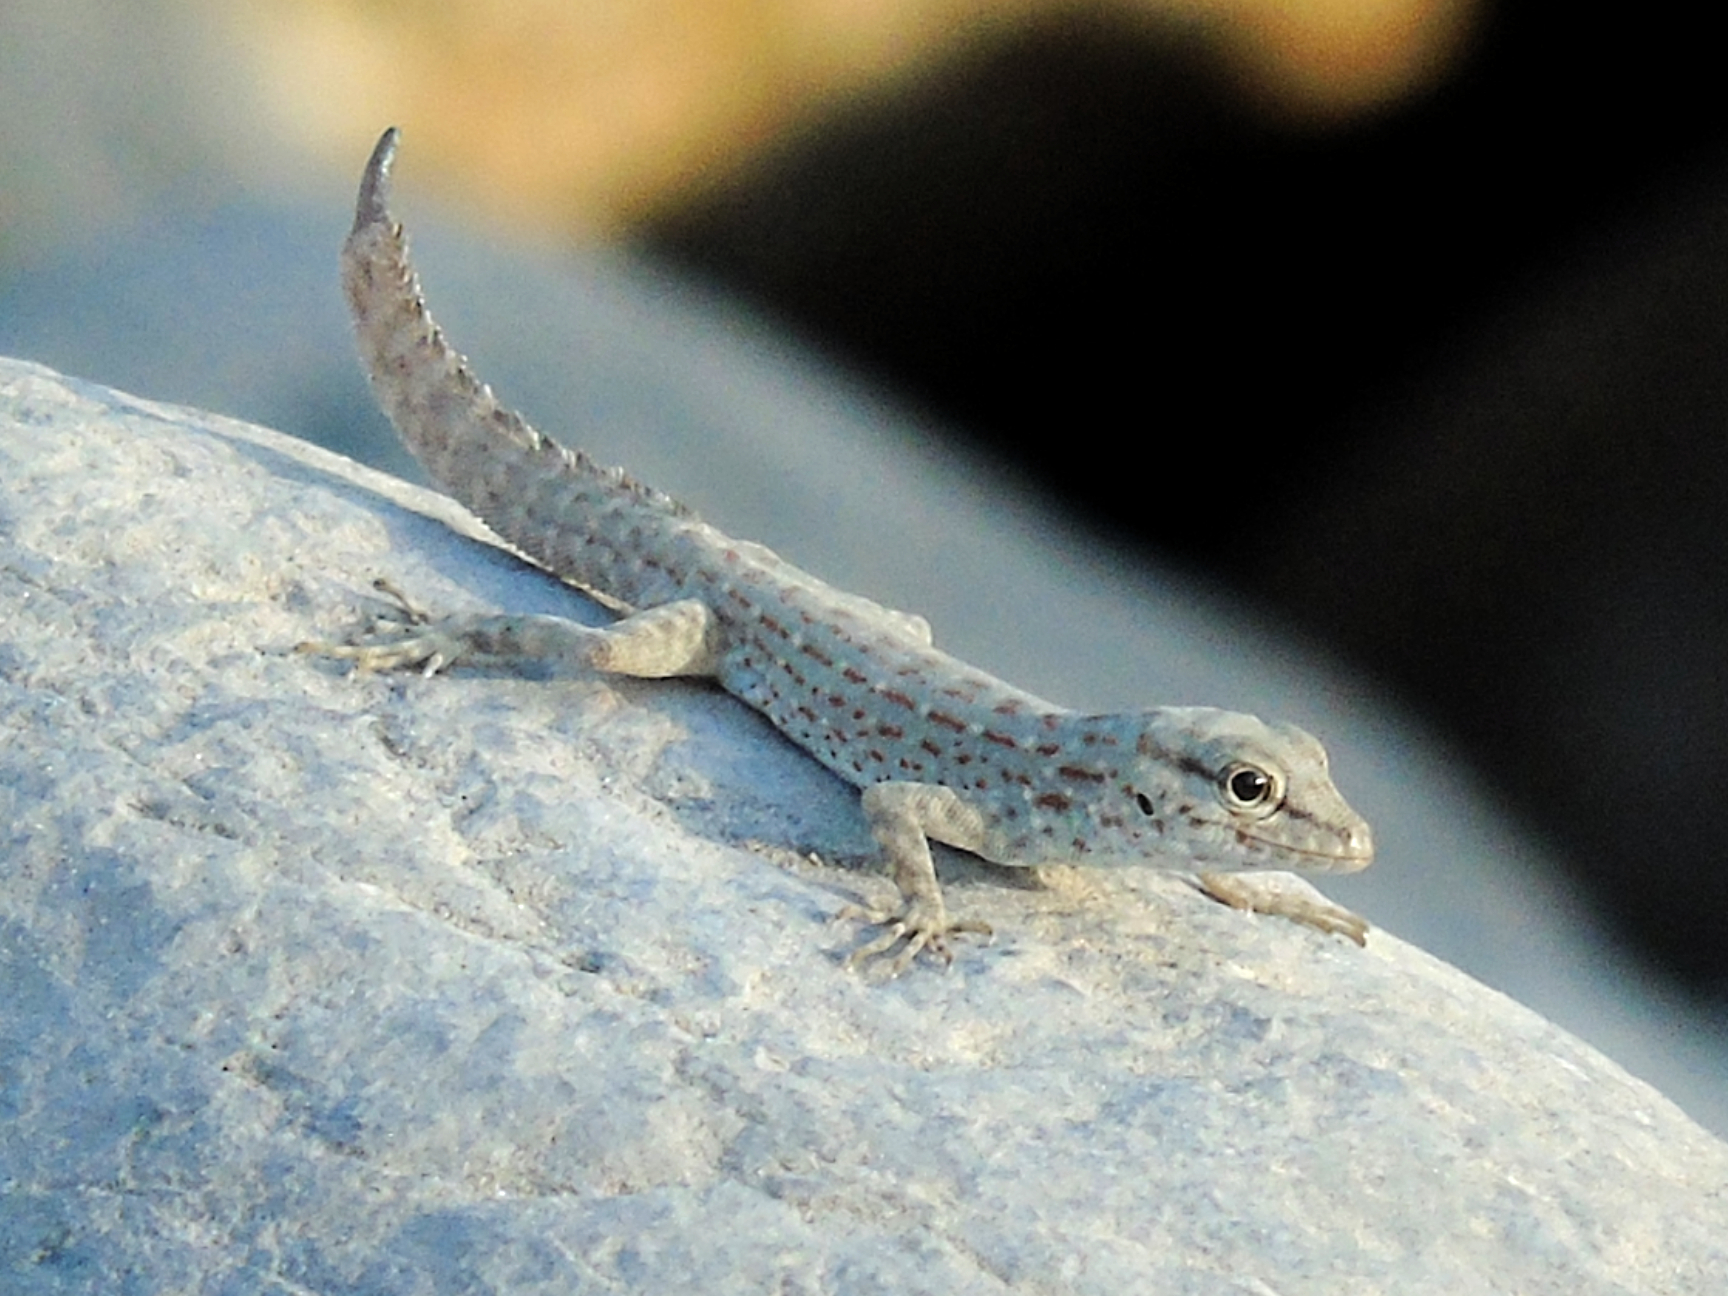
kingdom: Animalia
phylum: Chordata
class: Squamata
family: Sphaerodactylidae
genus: Pristurus
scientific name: Pristurus rupestris
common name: Blanford’s semaphore gecko
